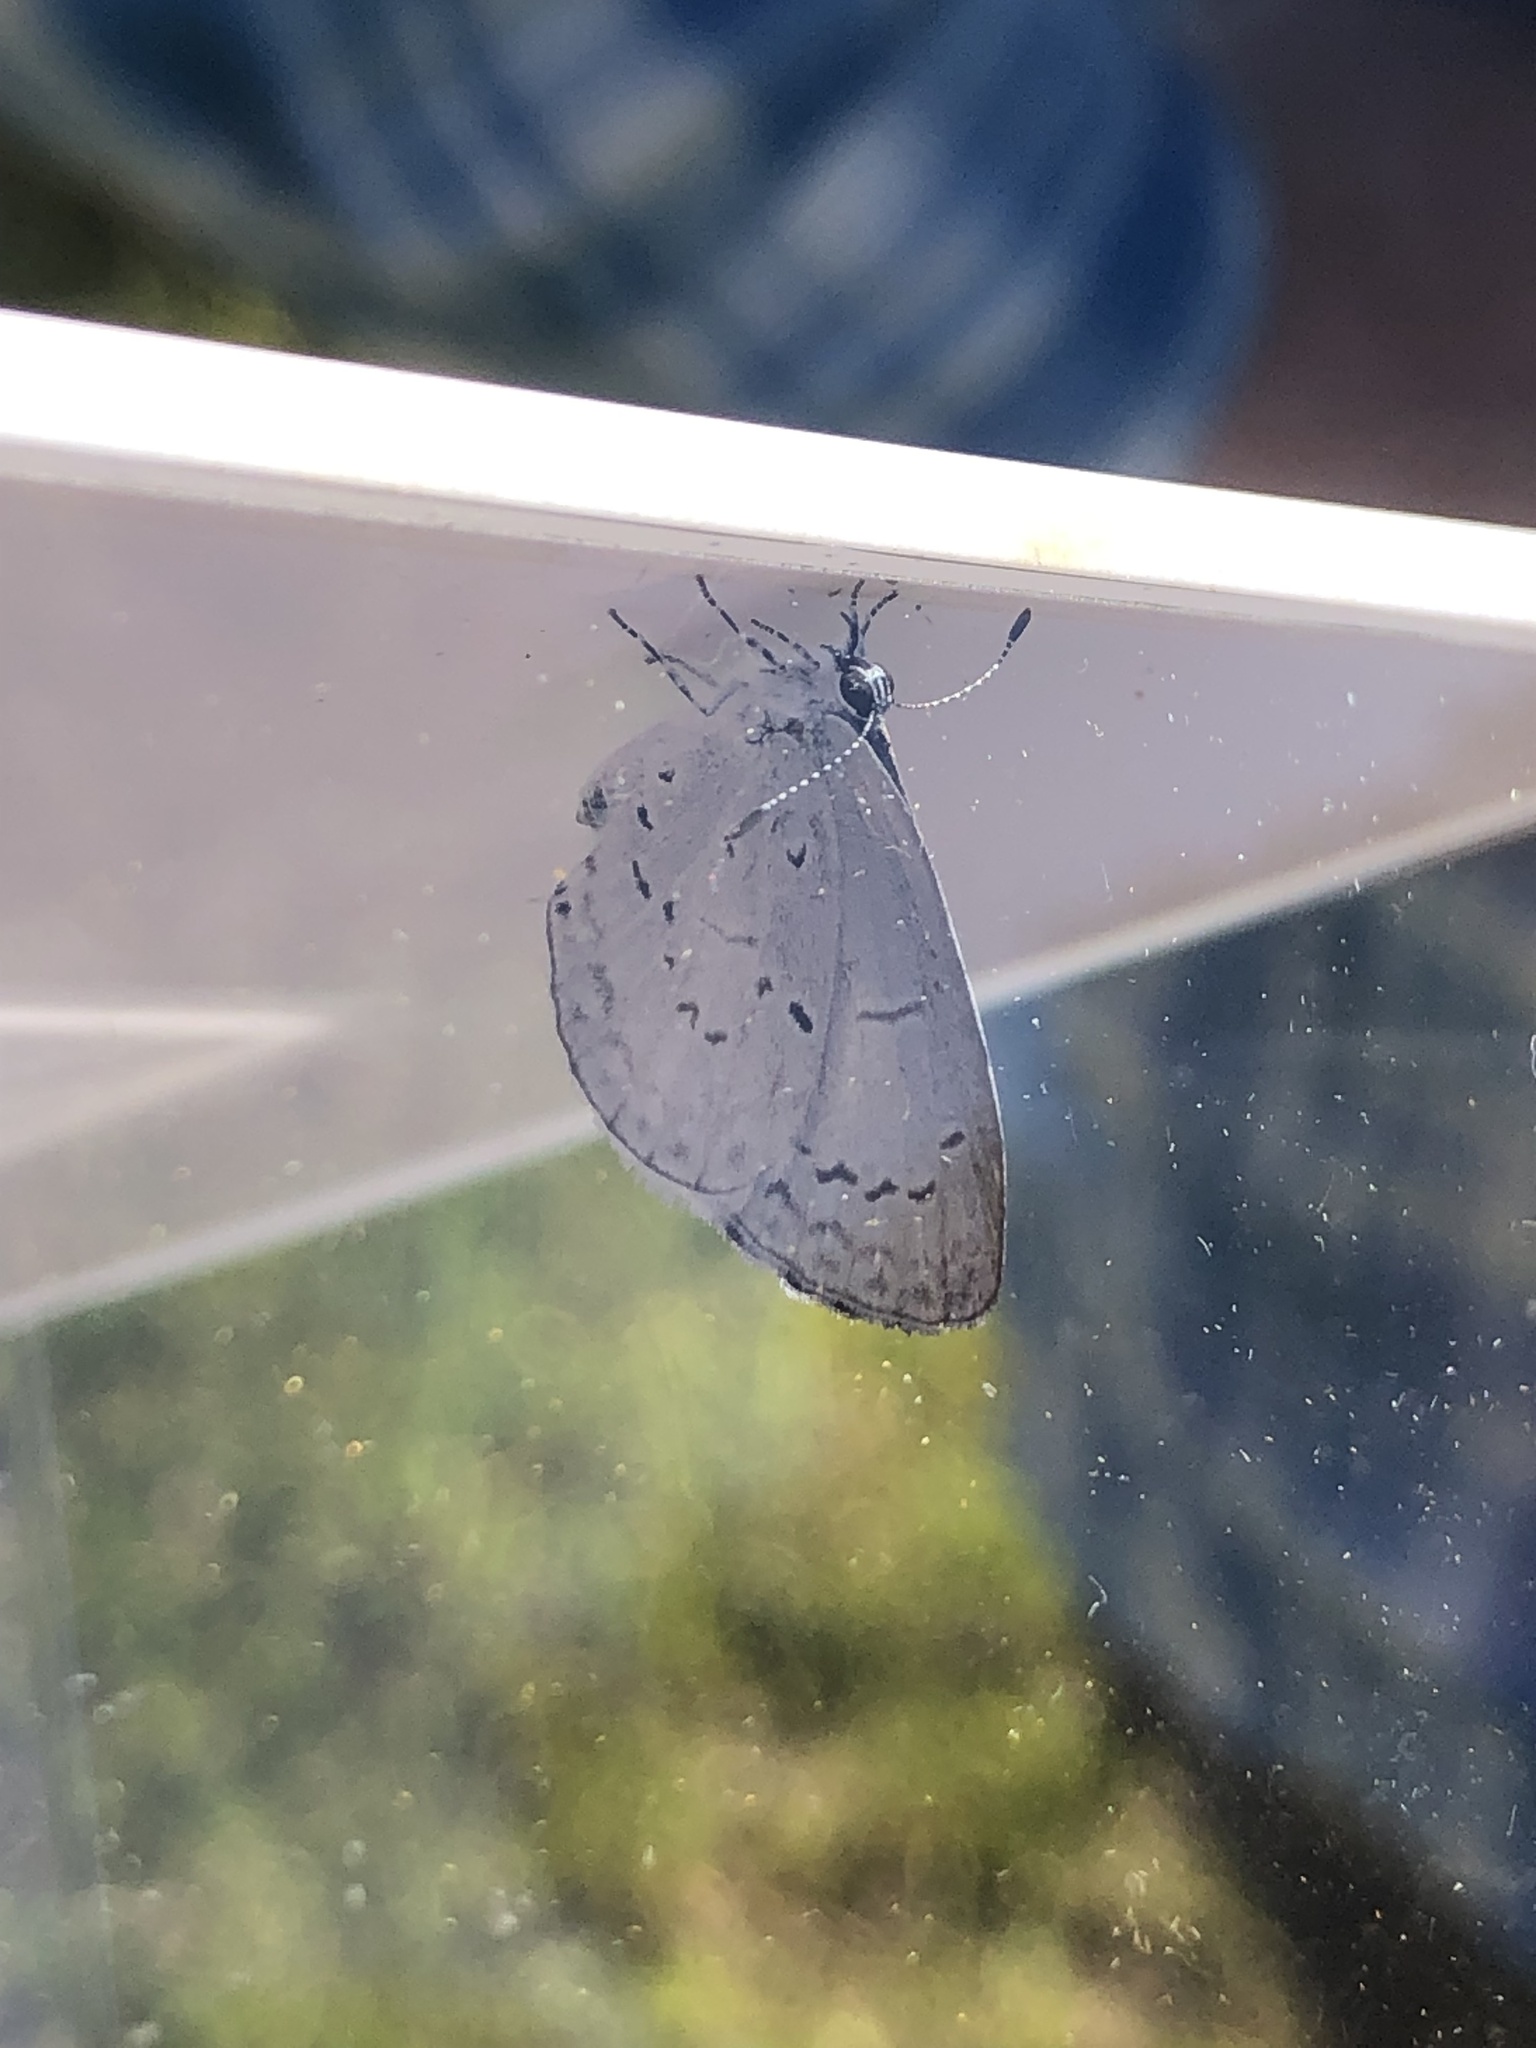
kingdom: Animalia
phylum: Arthropoda
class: Insecta
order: Lepidoptera
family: Lycaenidae
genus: Cyaniris
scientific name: Cyaniris neglecta
